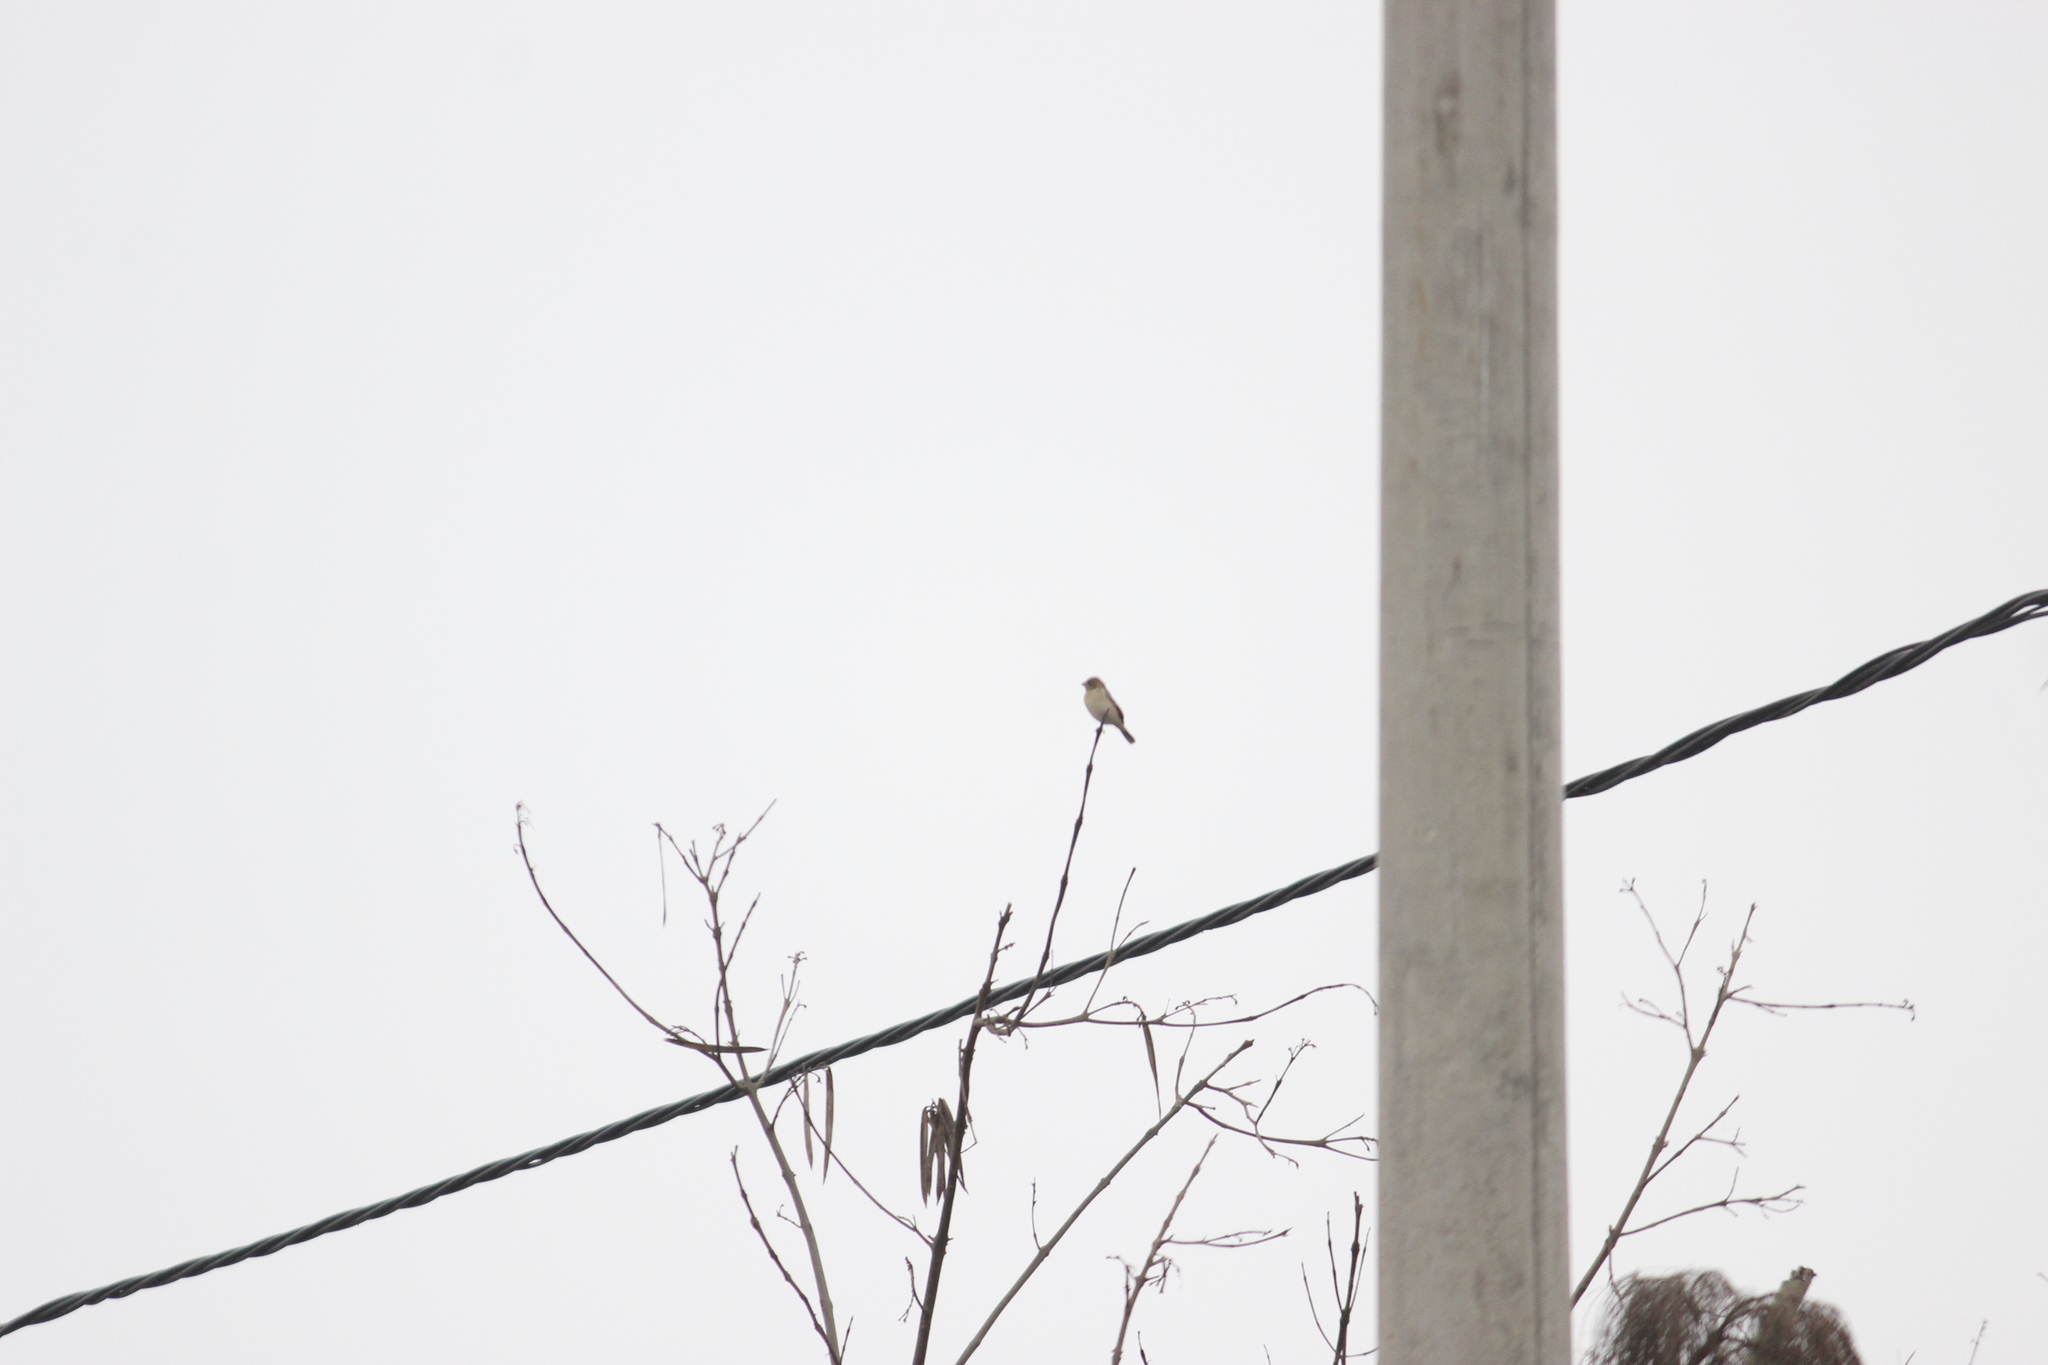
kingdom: Animalia
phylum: Chordata
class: Aves
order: Passeriformes
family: Thraupidae
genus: Sporophila
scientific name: Sporophila telasco
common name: Chestnut-throated seedeater
